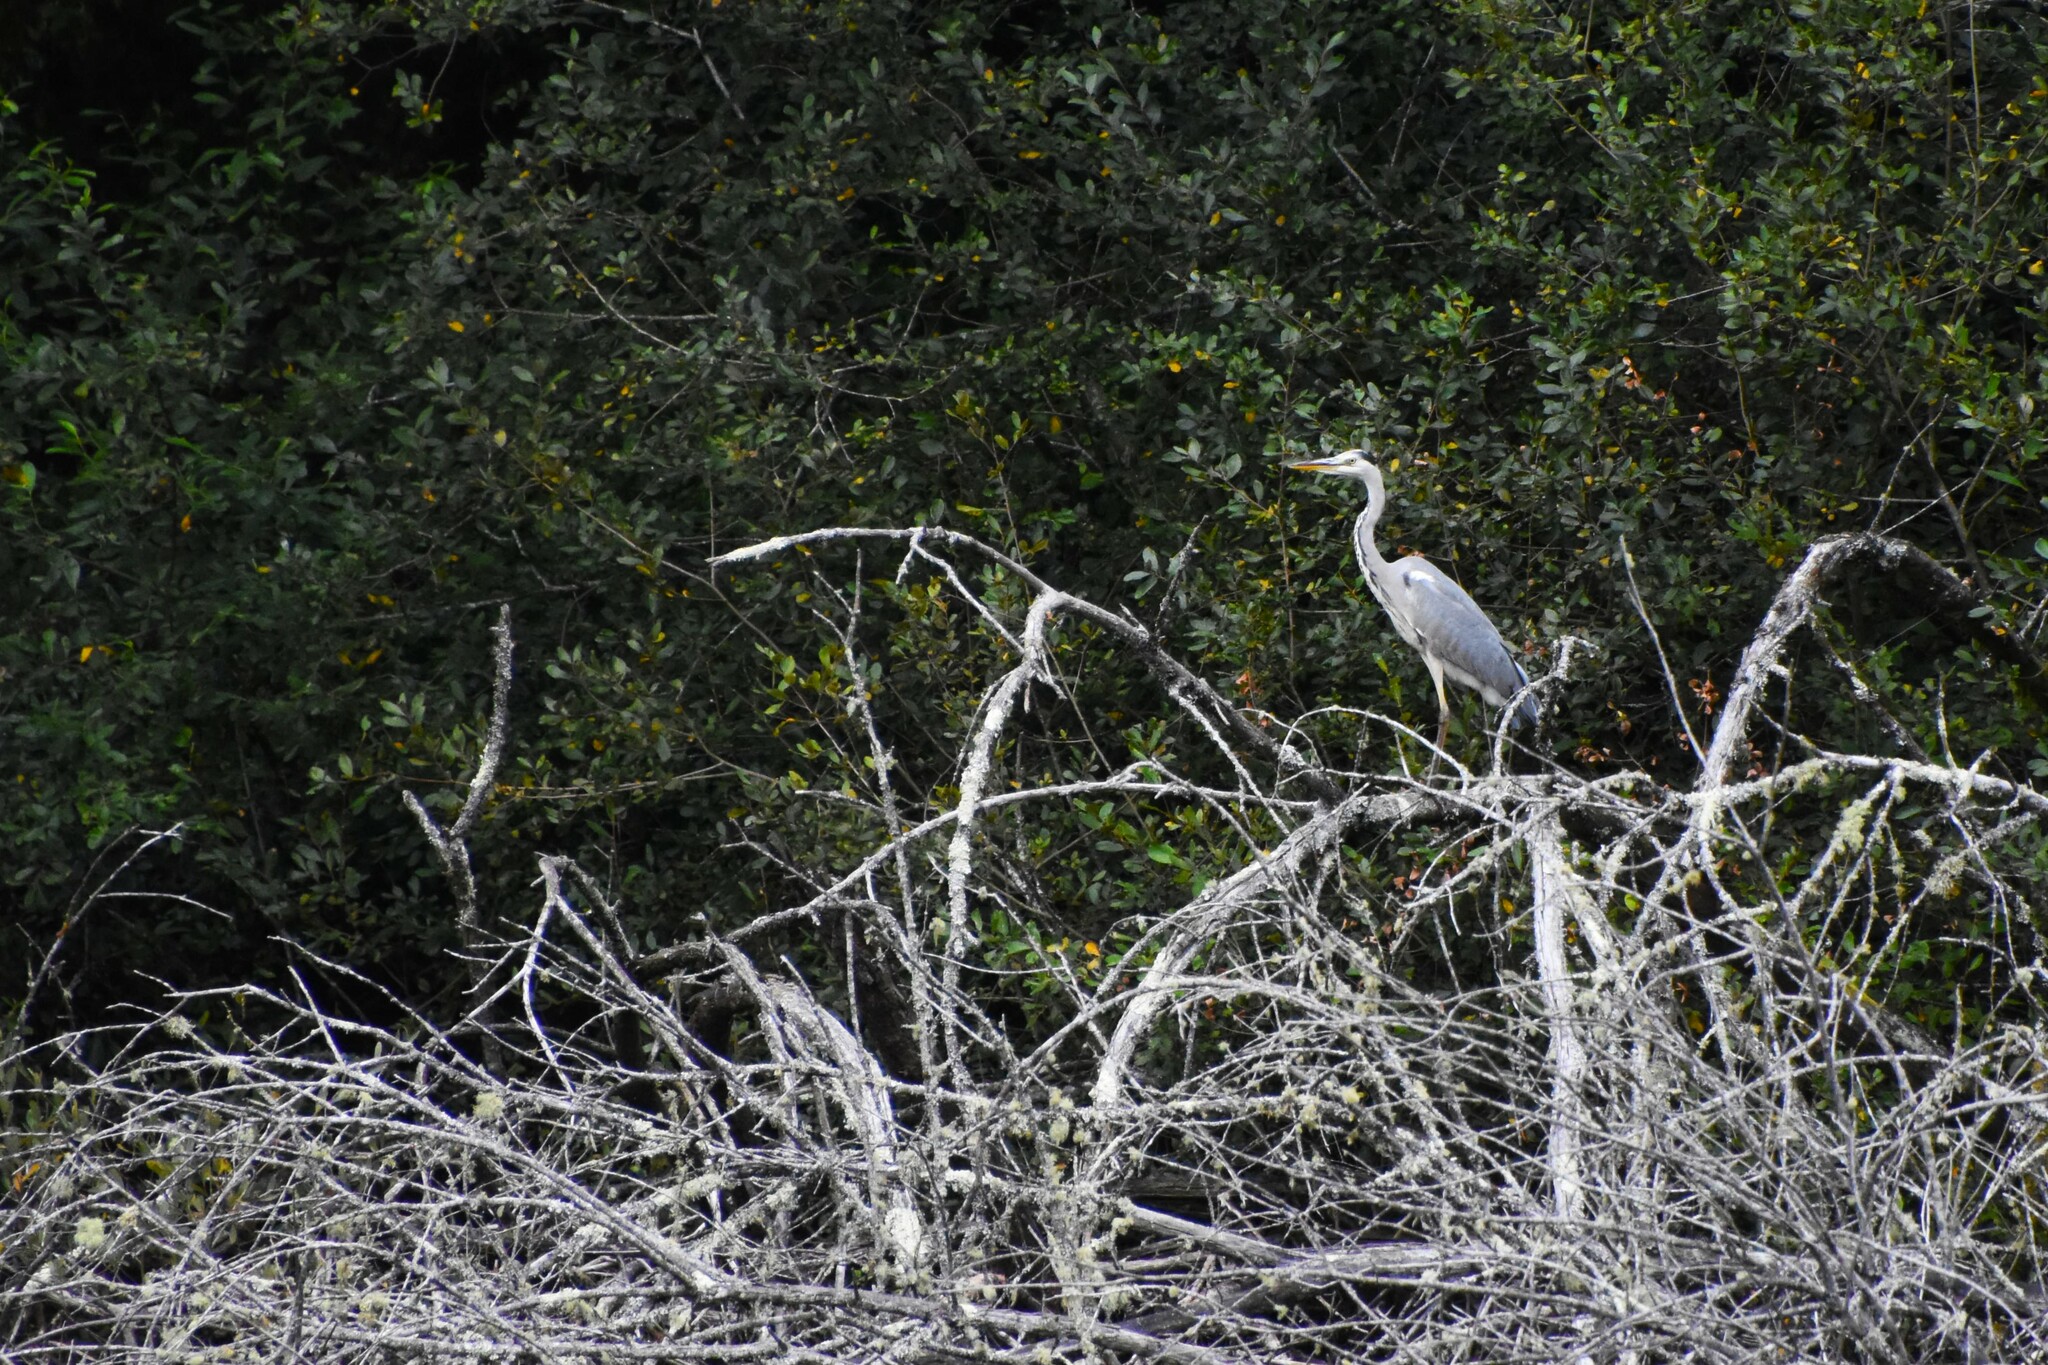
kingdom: Animalia
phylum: Chordata
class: Aves
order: Pelecaniformes
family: Ardeidae
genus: Ardea
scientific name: Ardea cinerea
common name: Grey heron
